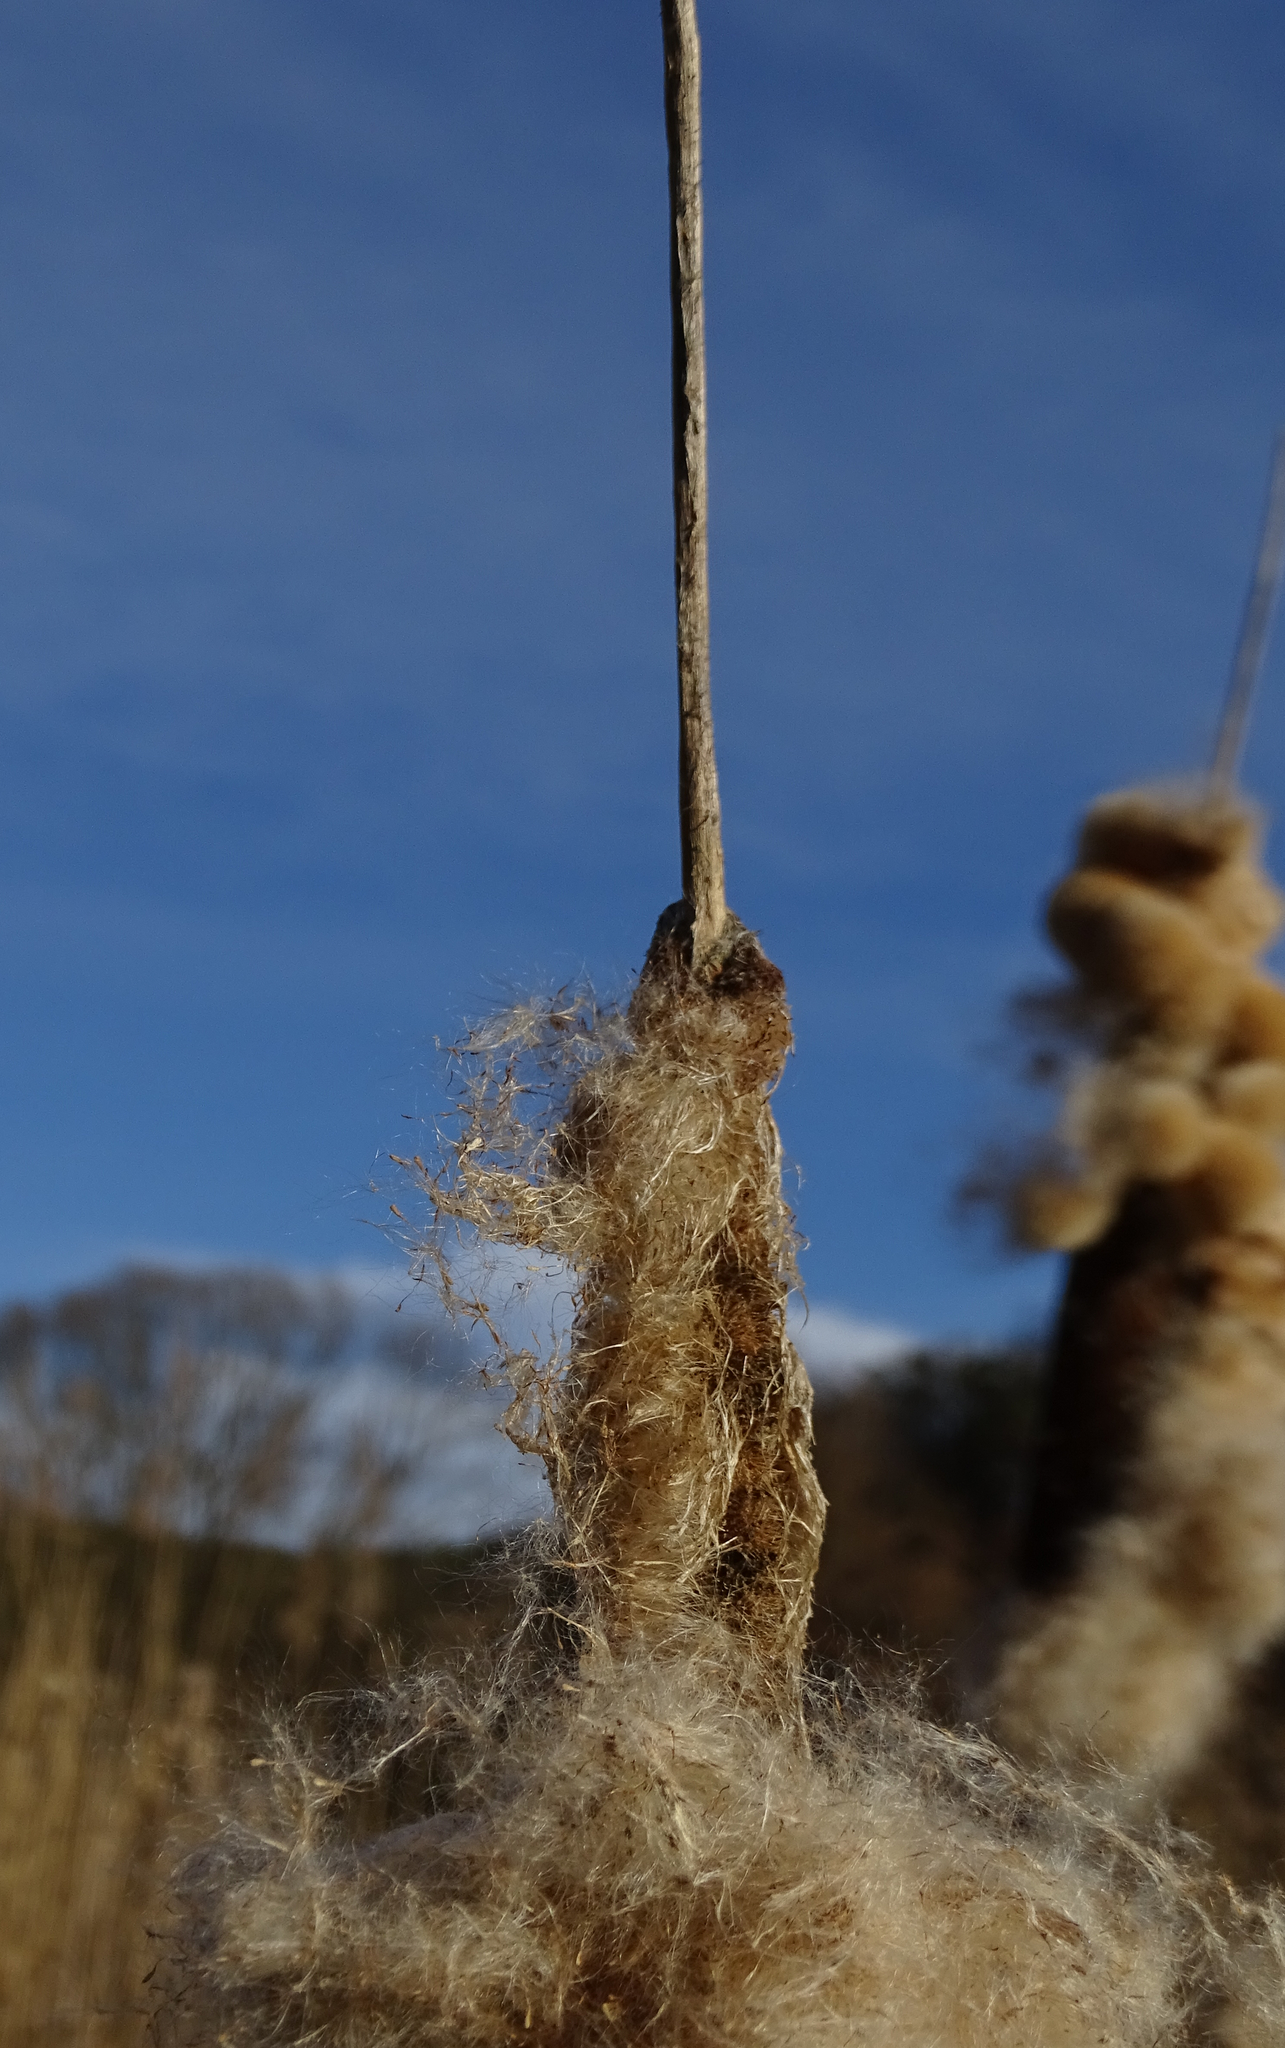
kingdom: Plantae
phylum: Tracheophyta
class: Liliopsida
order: Poales
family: Typhaceae
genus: Typha
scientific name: Typha latifolia
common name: Broadleaf cattail
